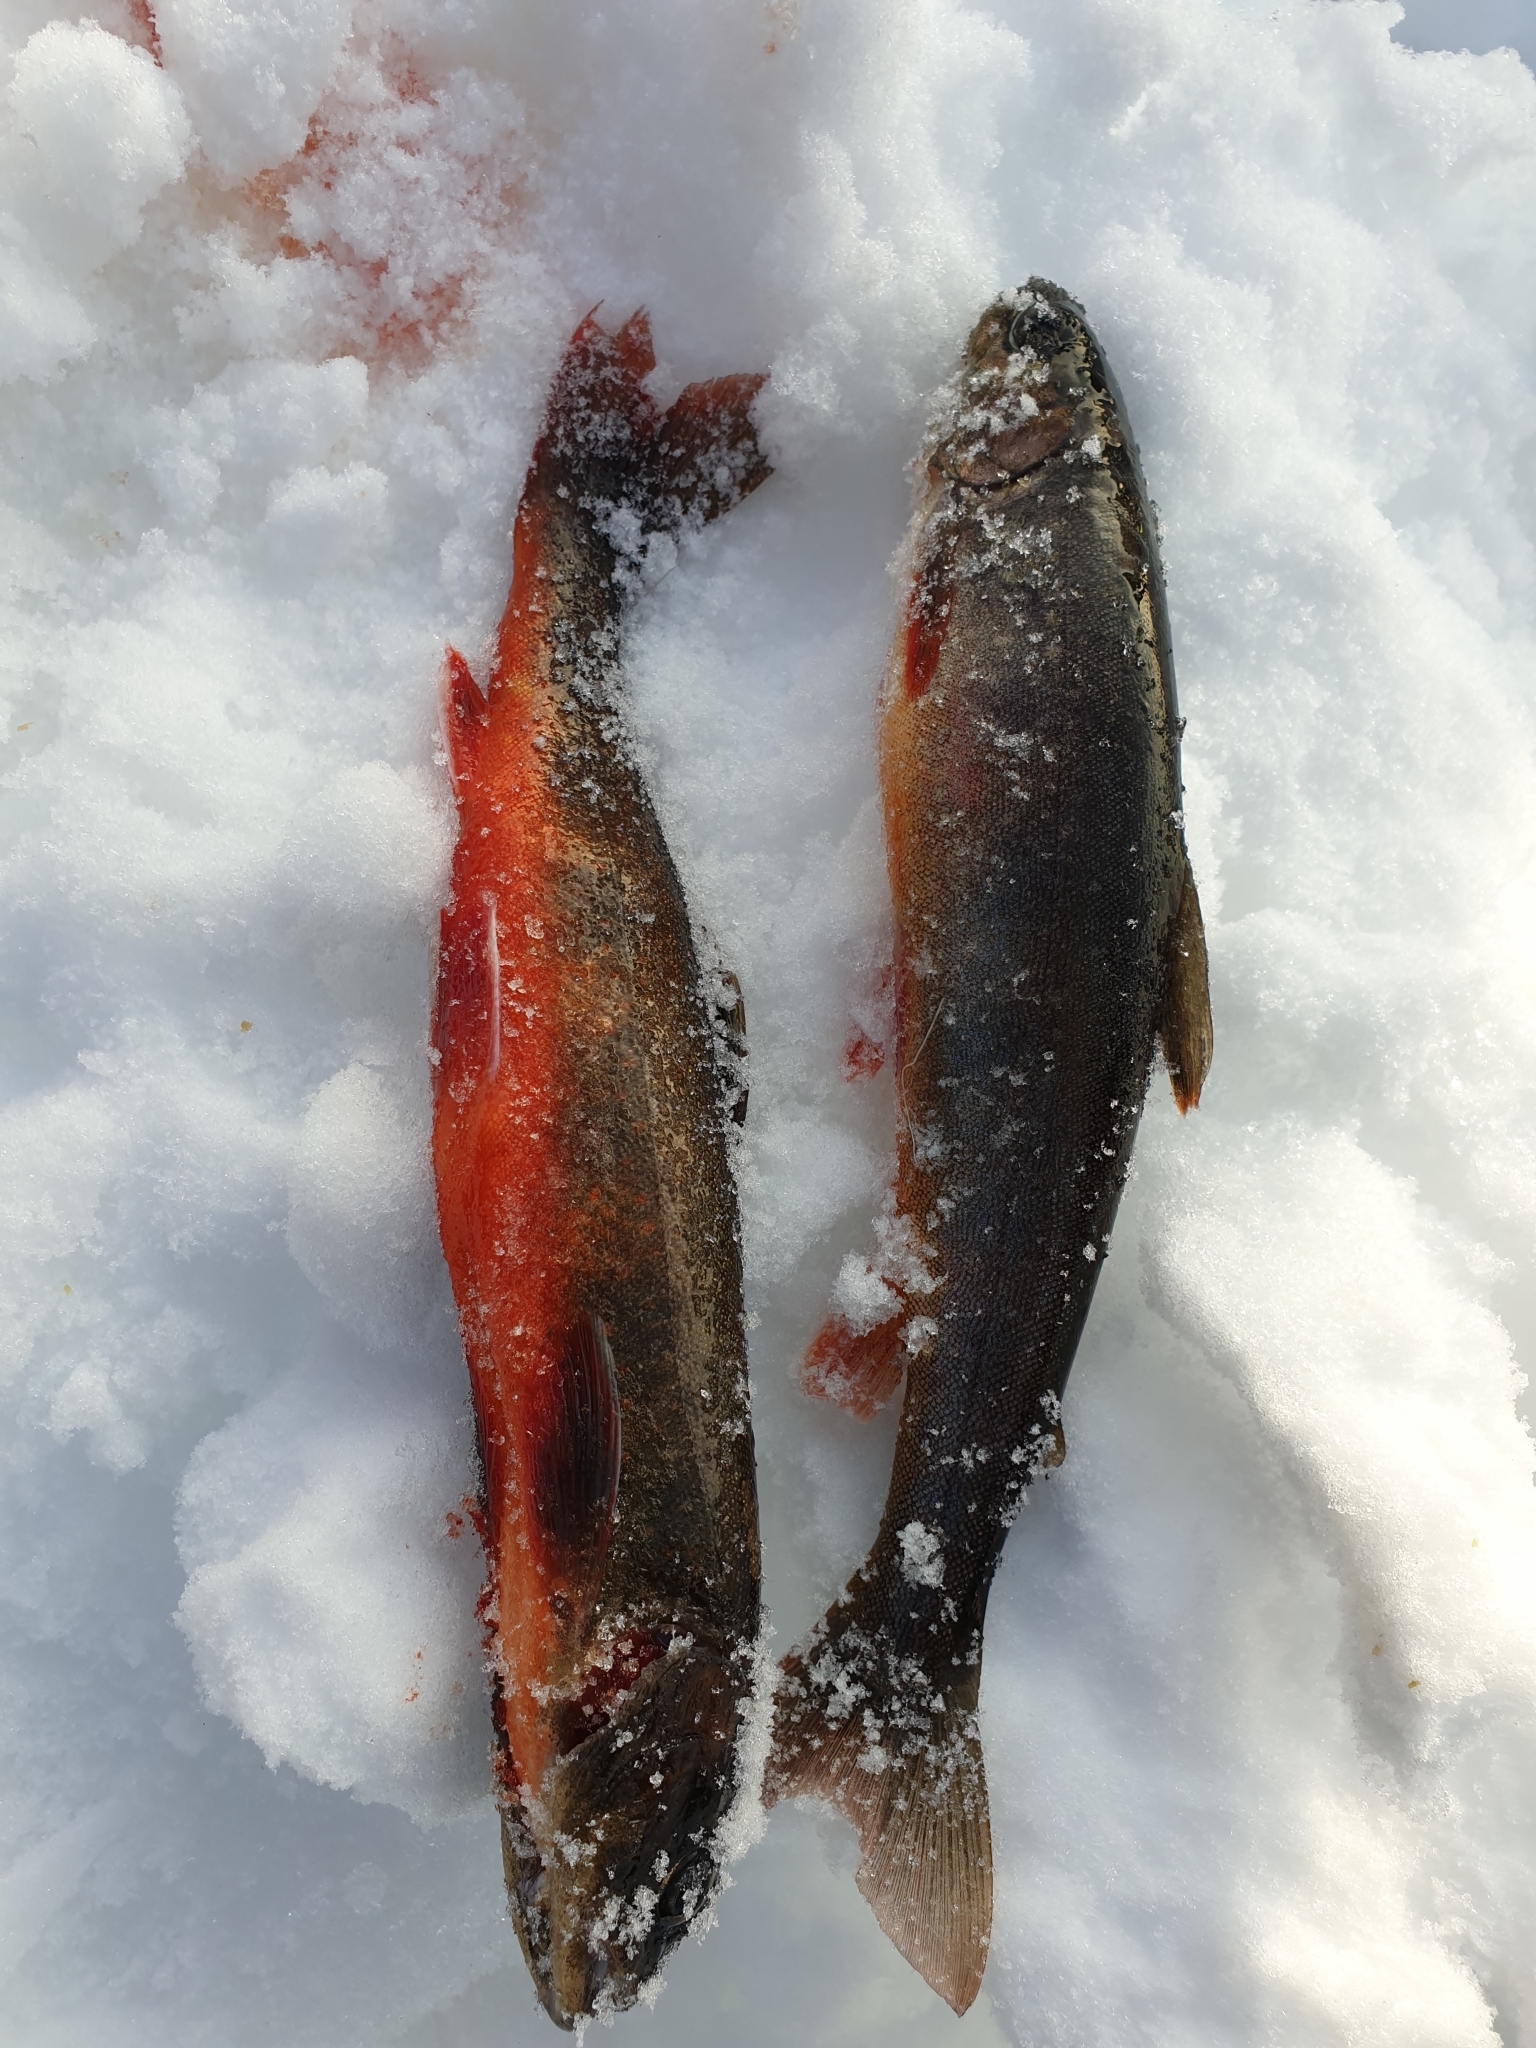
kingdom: Animalia
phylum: Chordata
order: Salmoniformes
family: Salmonidae
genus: Salvelinus
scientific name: Salvelinus alpinus
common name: Charr
